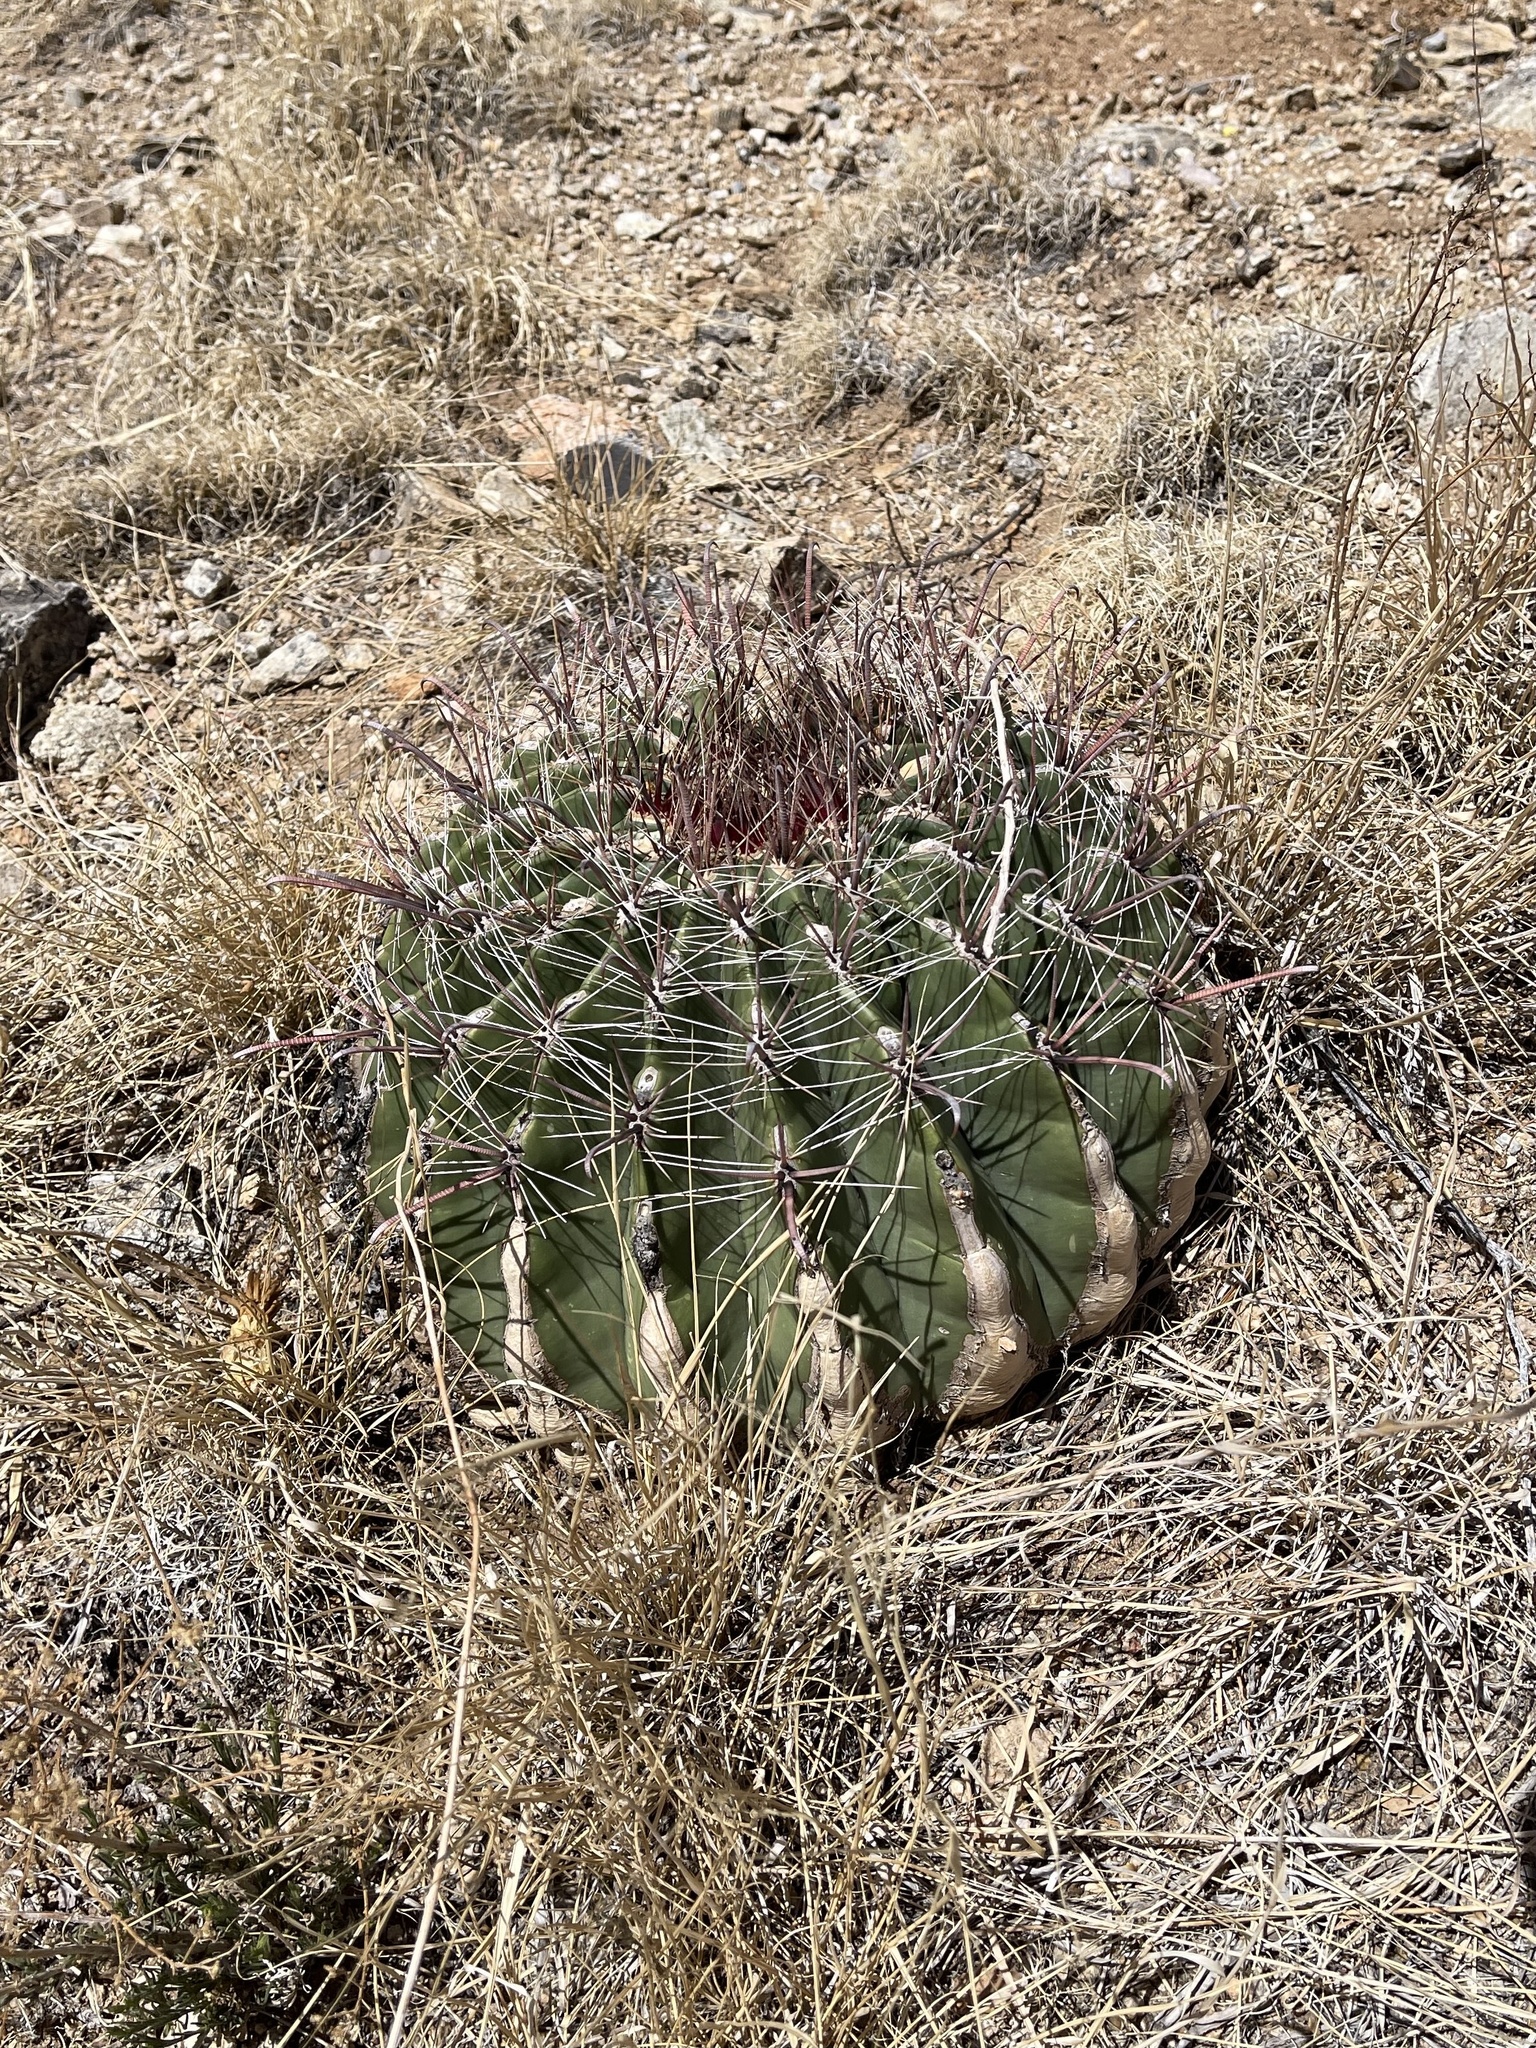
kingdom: Plantae
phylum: Tracheophyta
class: Magnoliopsida
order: Caryophyllales
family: Cactaceae
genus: Ferocactus
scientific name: Ferocactus wislizeni
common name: Candy barrel cactus
